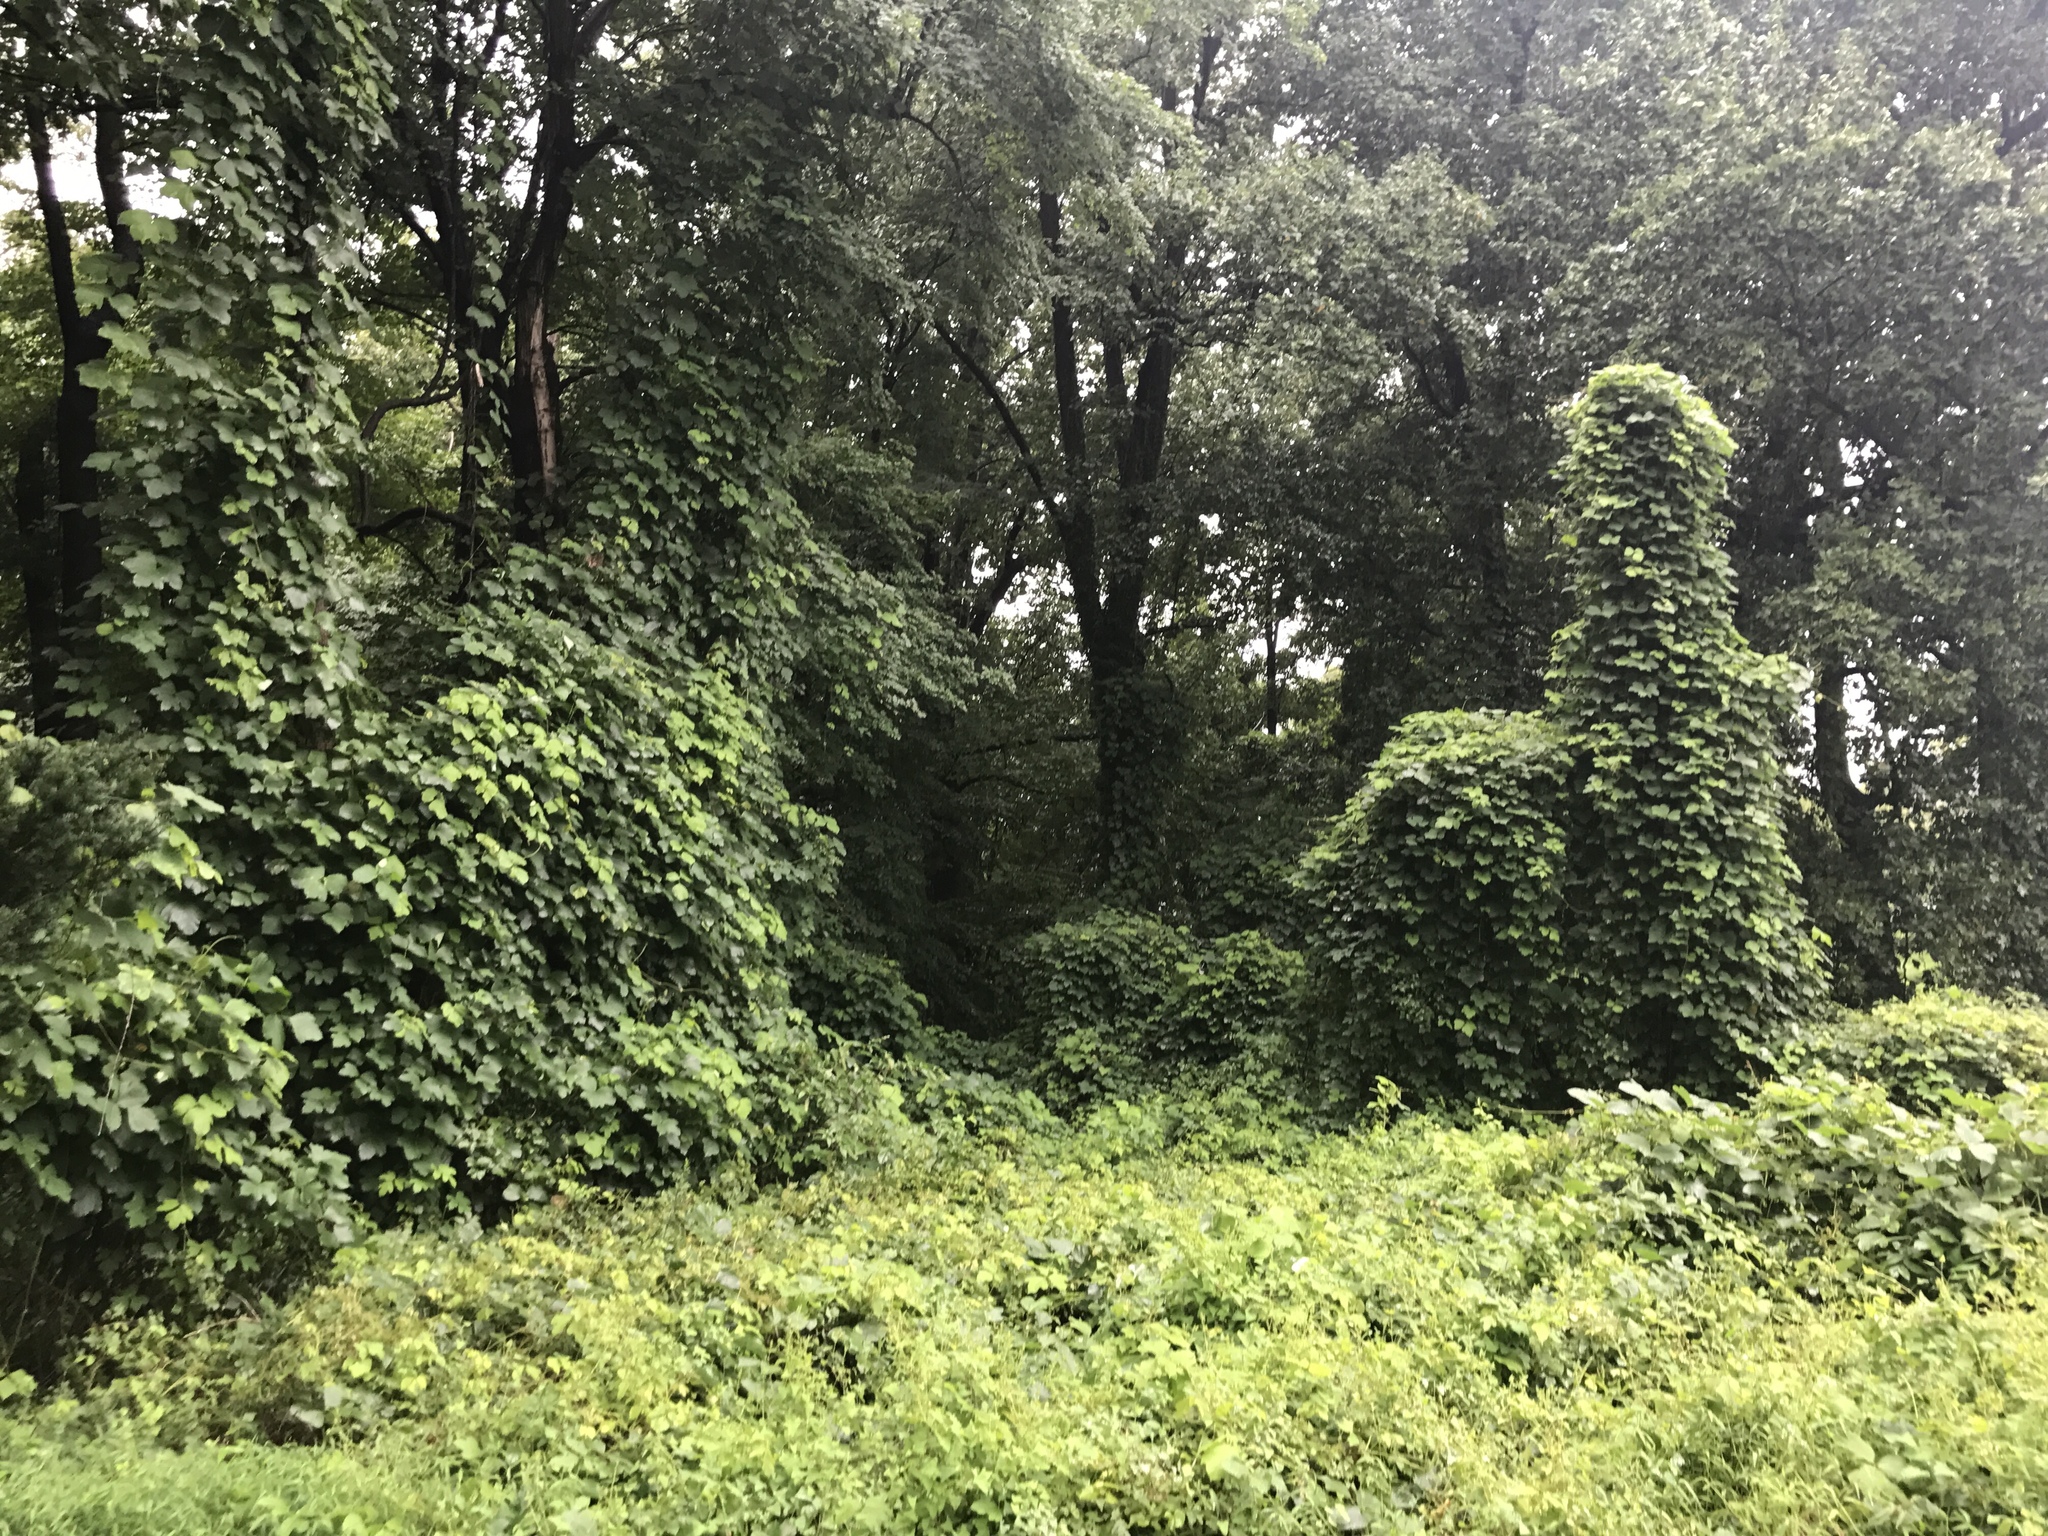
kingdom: Plantae
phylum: Tracheophyta
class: Magnoliopsida
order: Fabales
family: Fabaceae
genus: Pueraria
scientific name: Pueraria montana
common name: Kudzu
